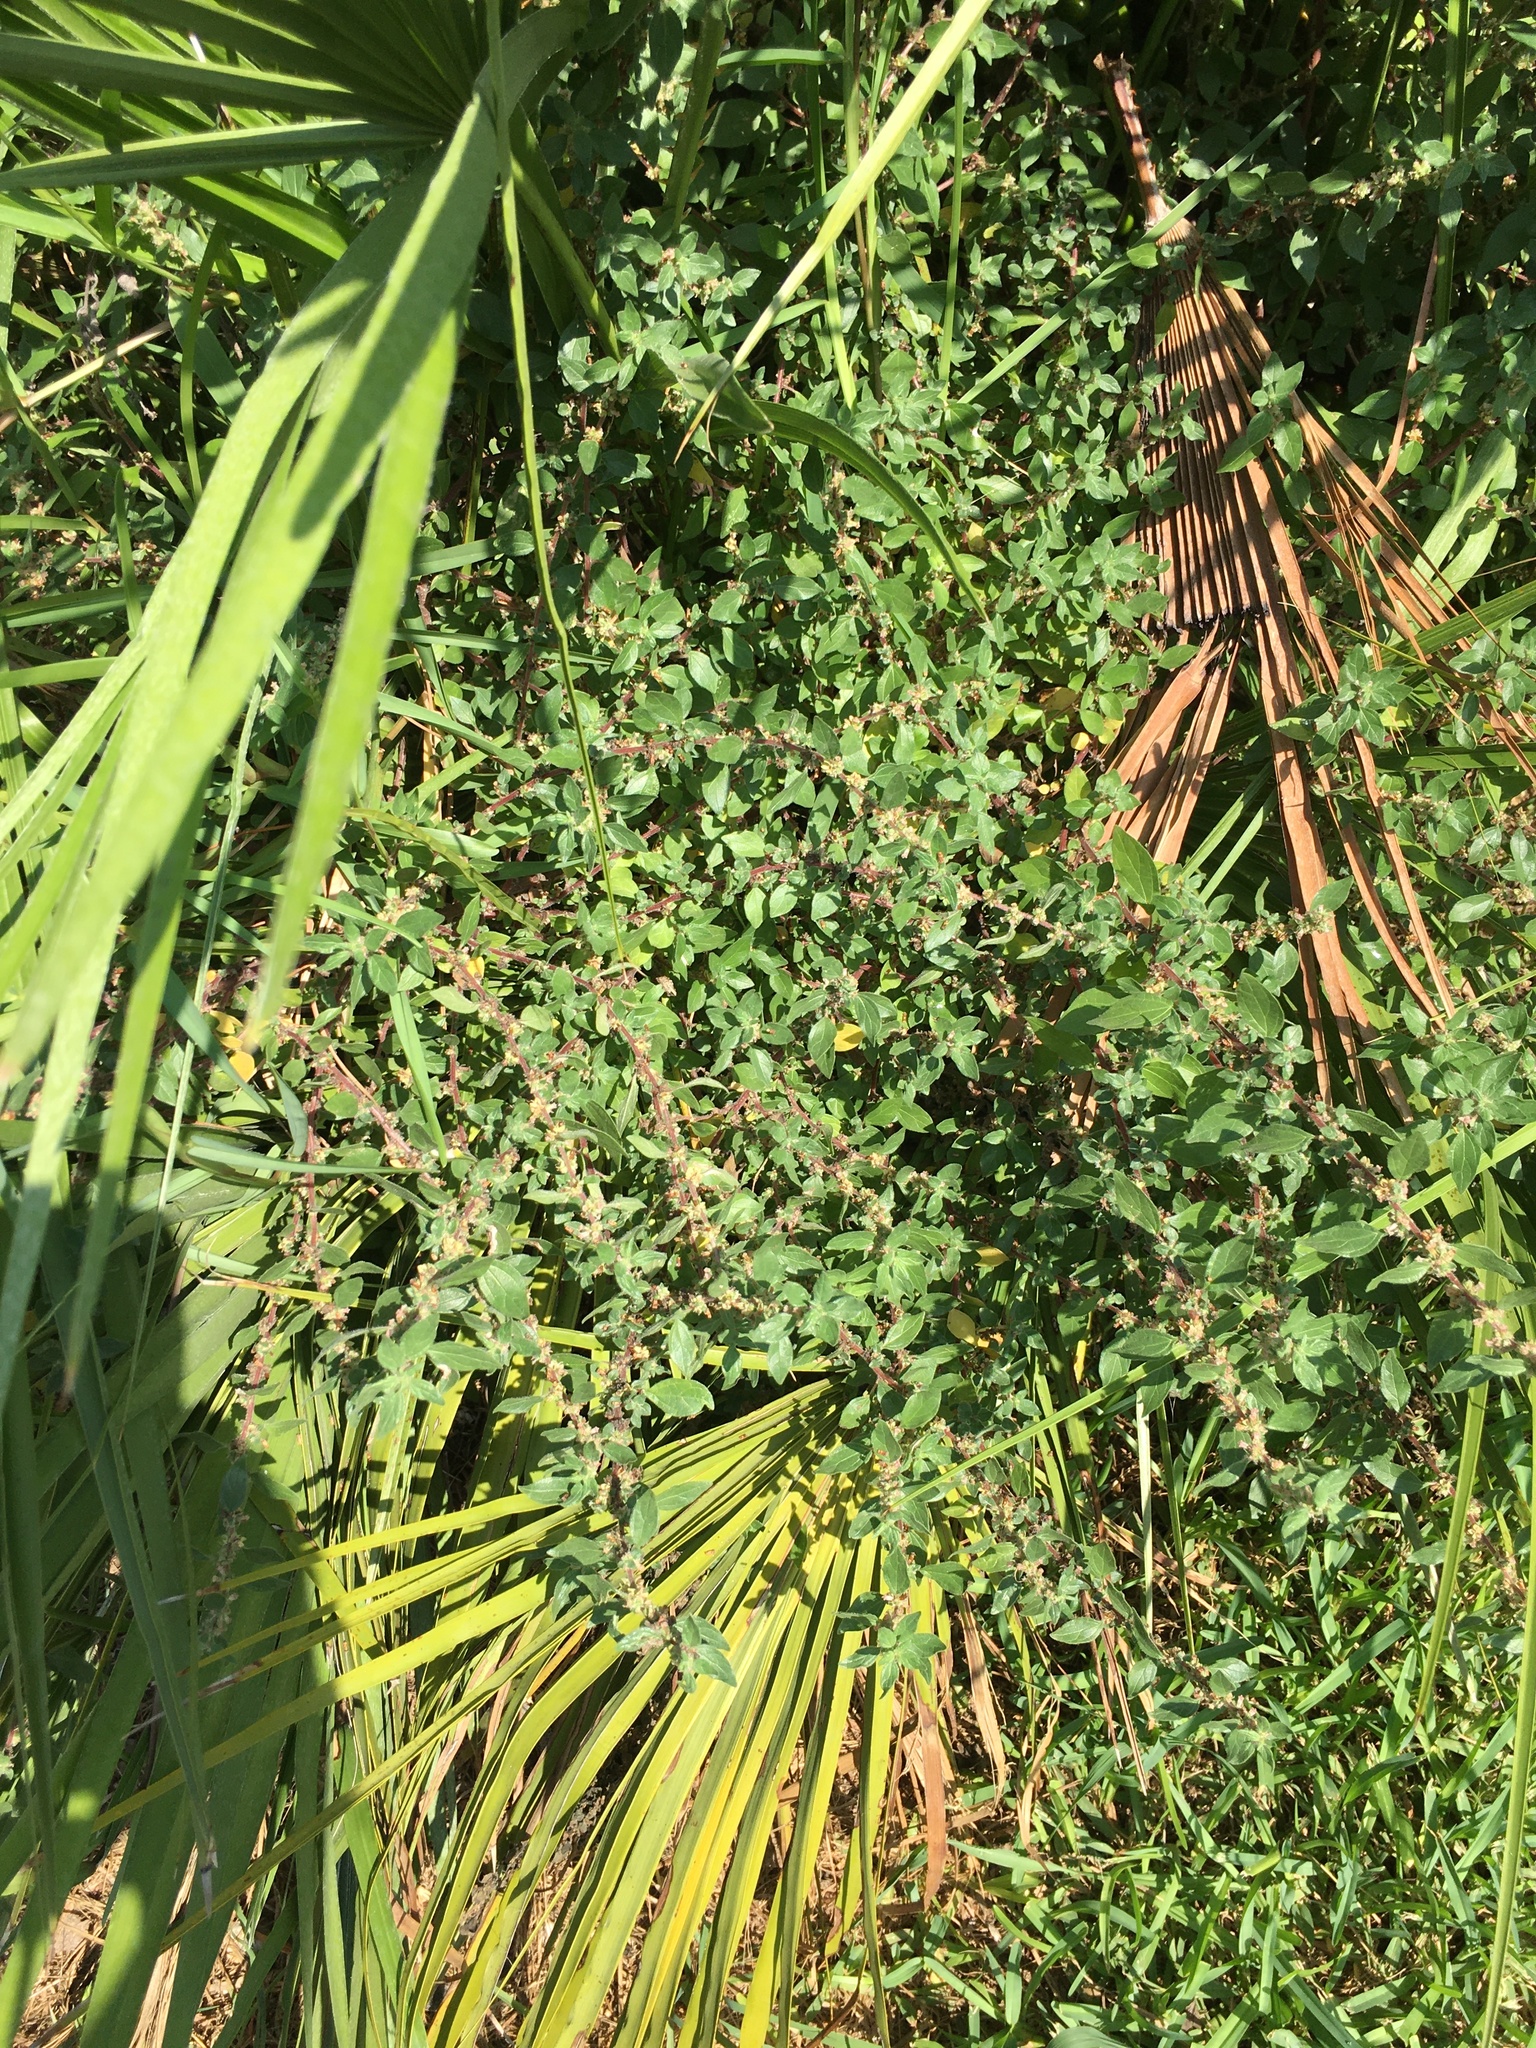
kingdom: Plantae
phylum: Tracheophyta
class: Magnoliopsida
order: Rosales
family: Urticaceae
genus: Parietaria
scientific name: Parietaria judaica
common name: Pellitory-of-the-wall
